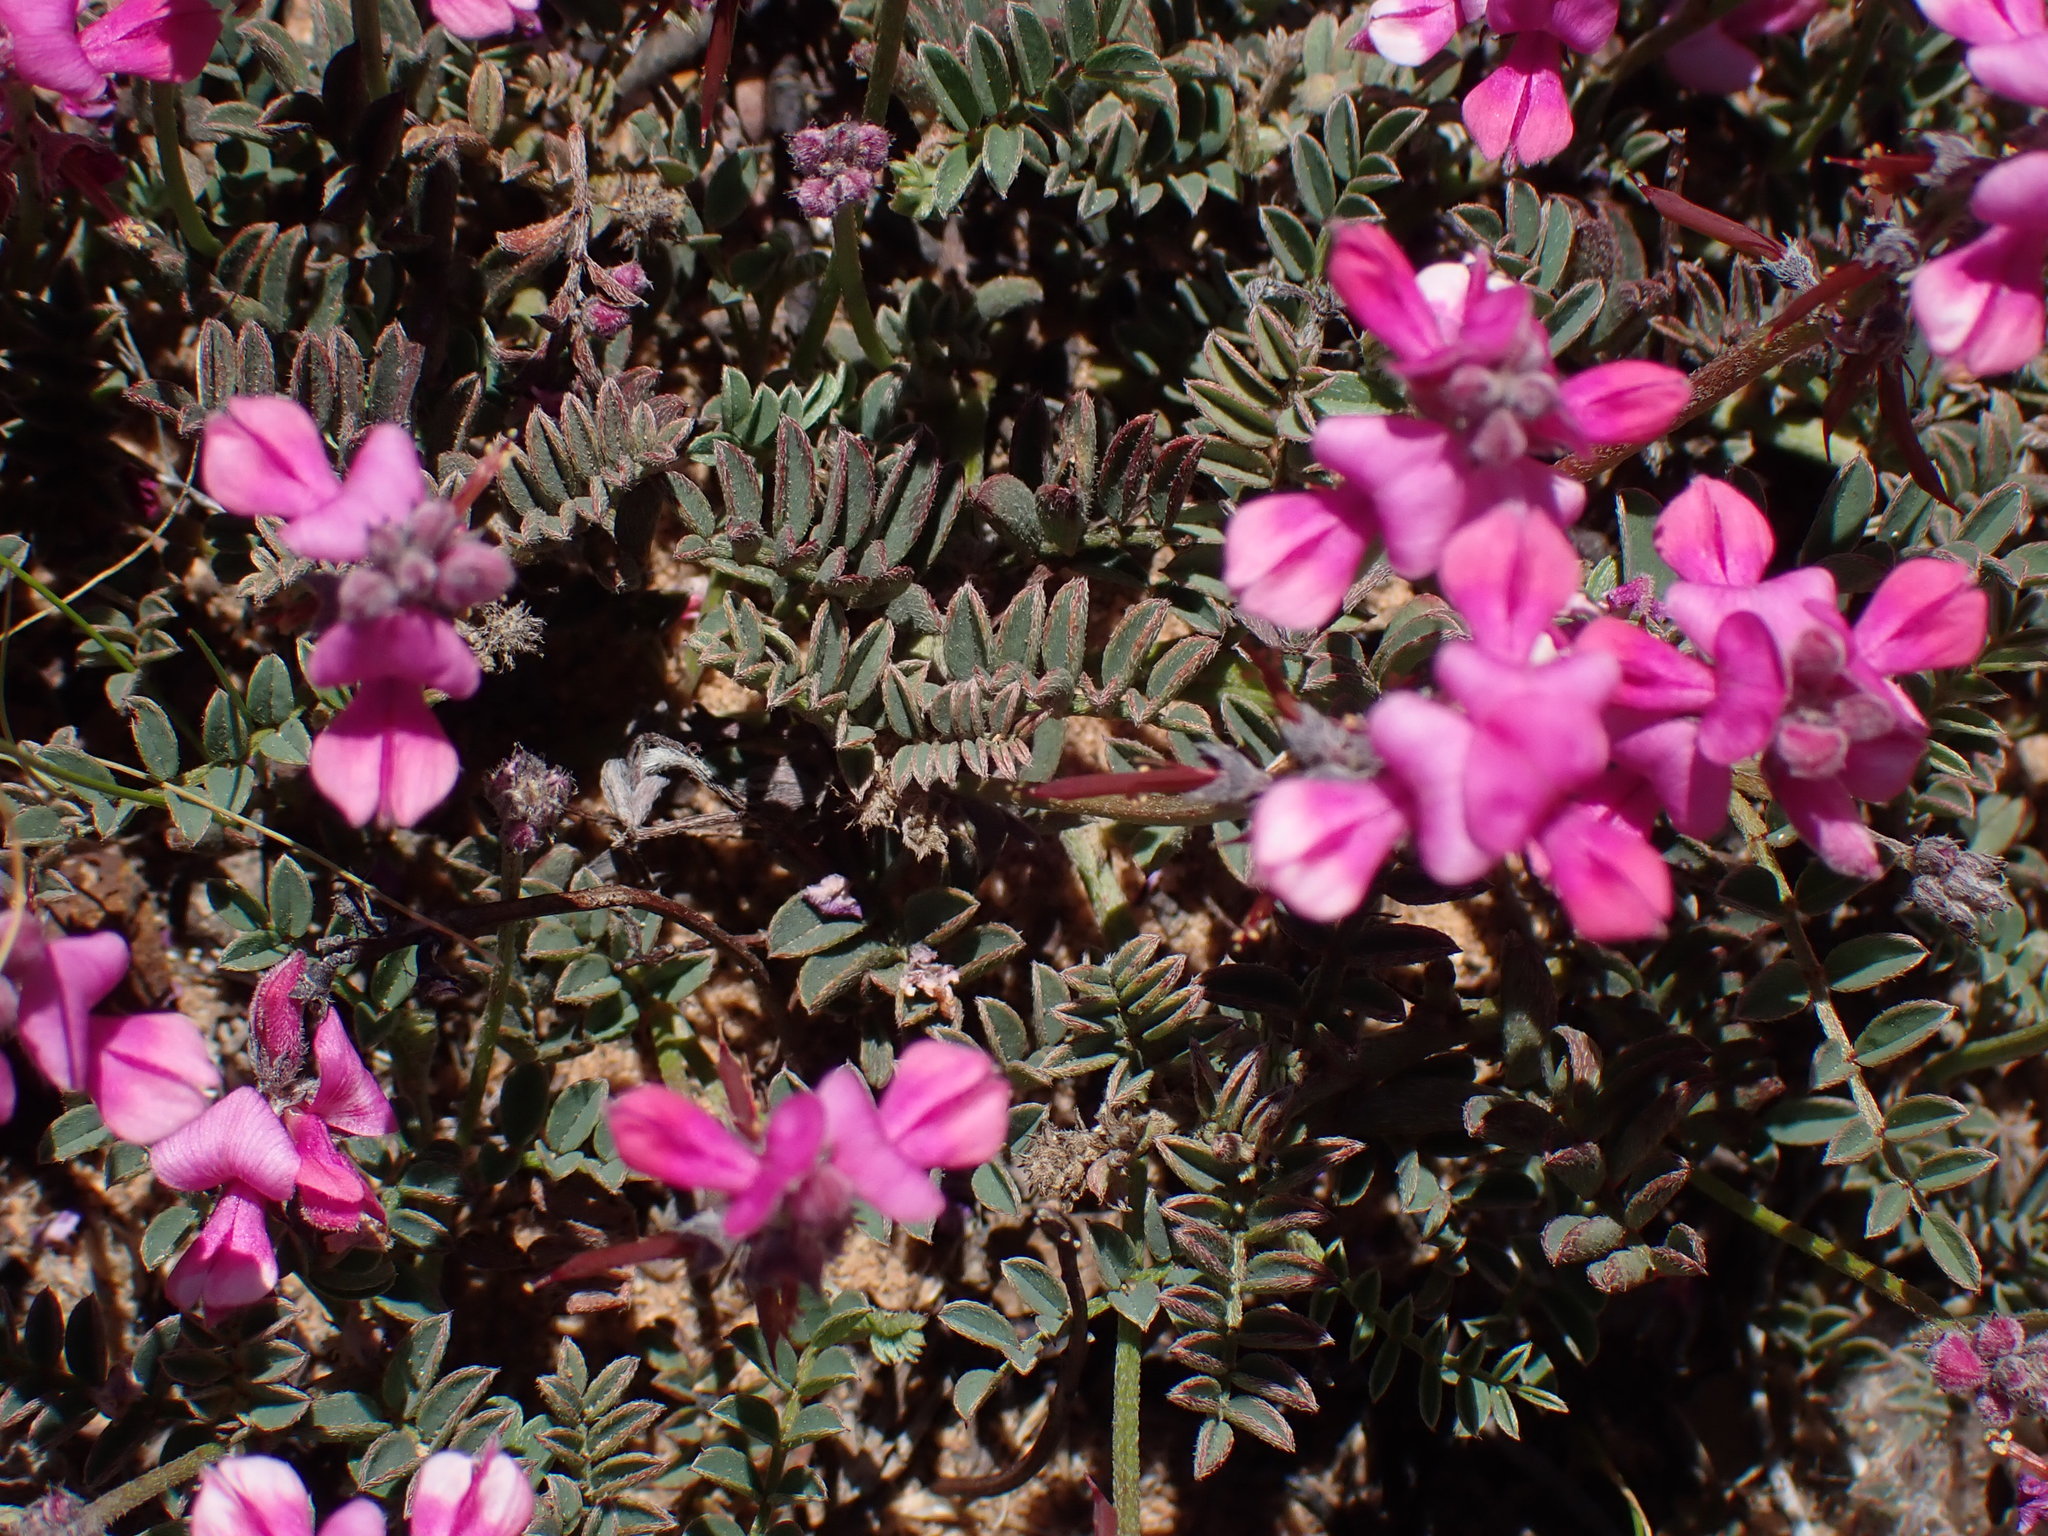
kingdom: Plantae
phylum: Tracheophyta
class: Magnoliopsida
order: Fabales
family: Fabaceae
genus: Indigofera
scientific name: Indigofera declinata
